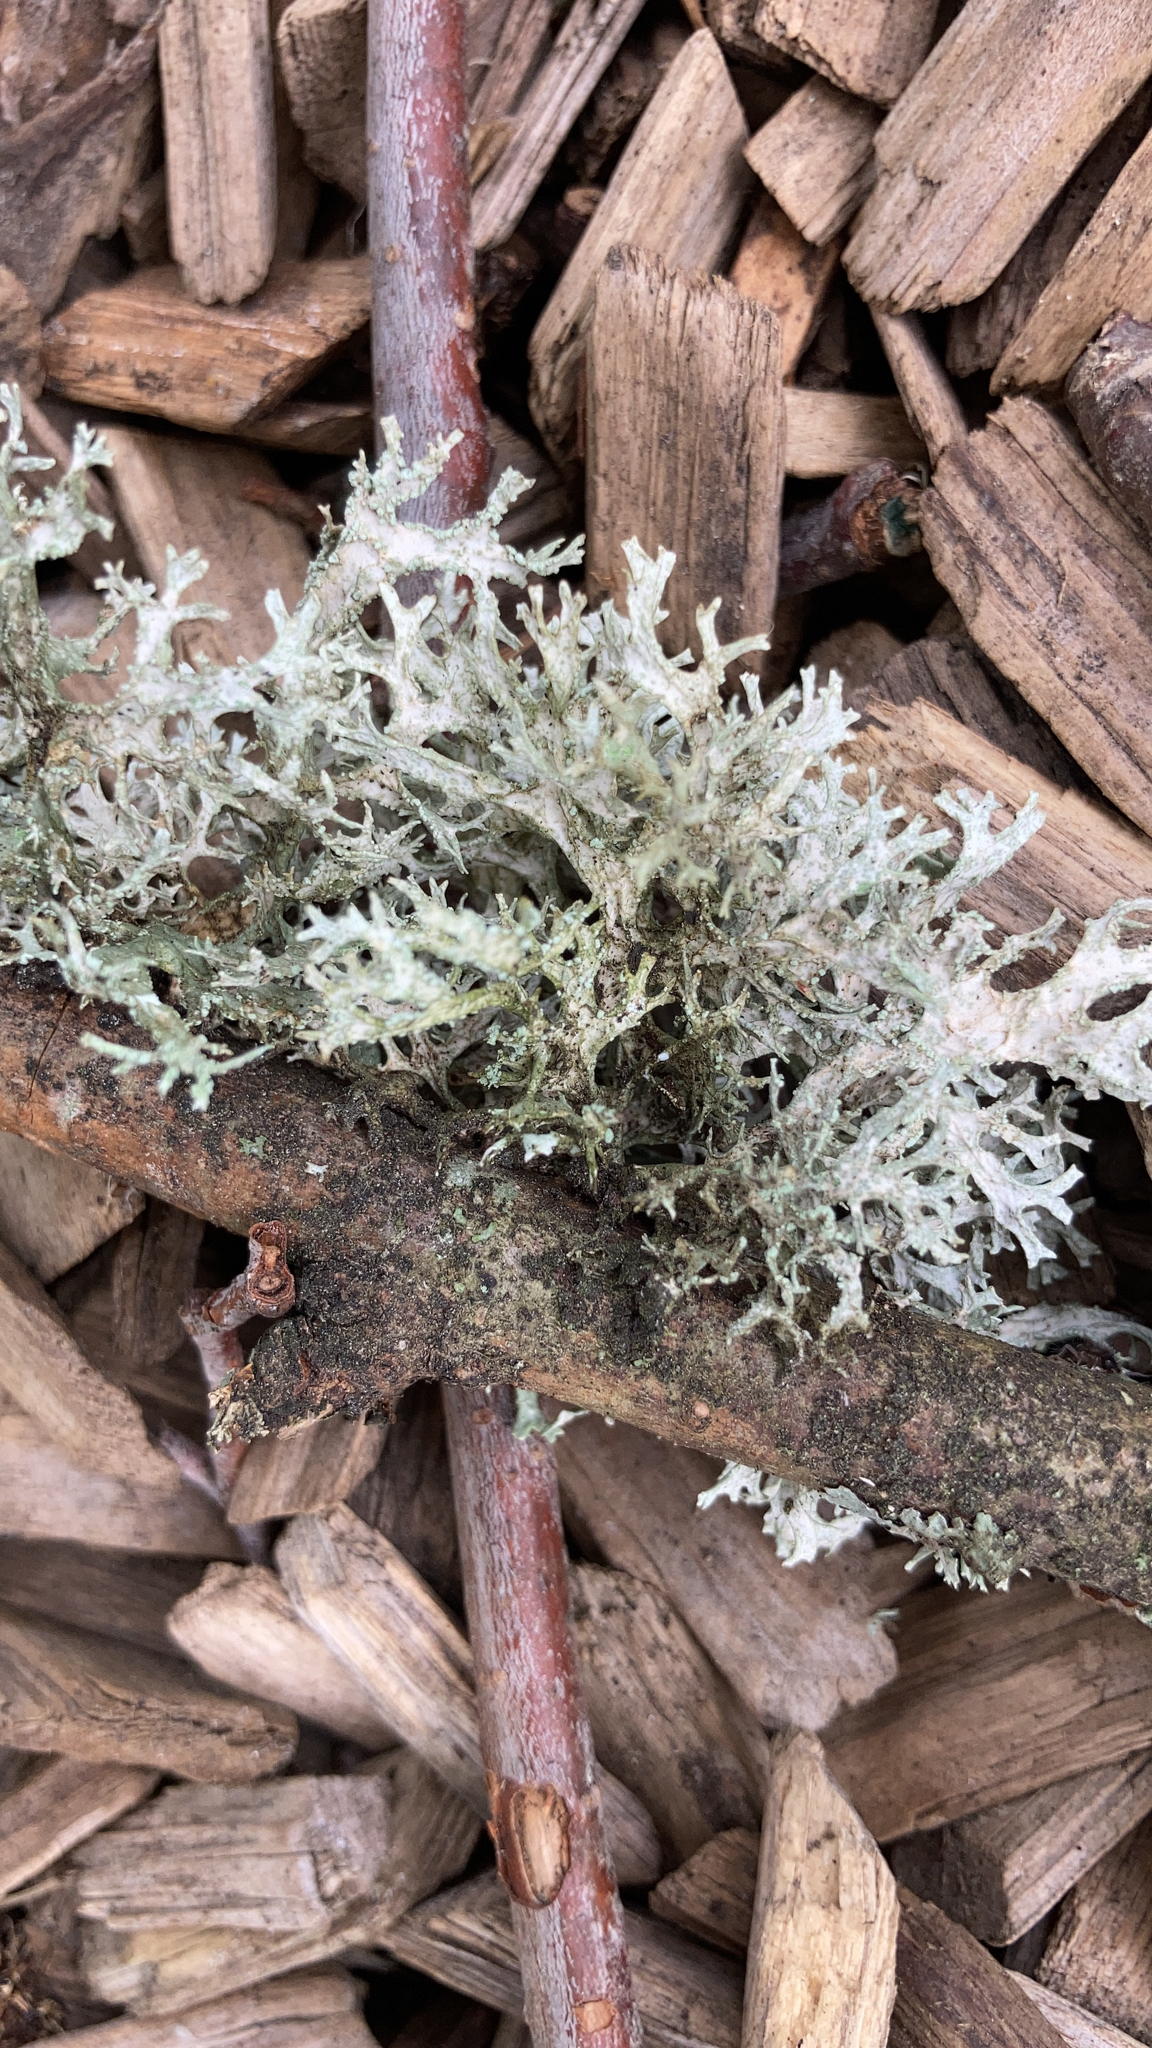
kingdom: Fungi
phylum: Ascomycota
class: Lecanoromycetes
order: Lecanorales
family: Parmeliaceae
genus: Evernia
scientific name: Evernia prunastri
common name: Oak moss
